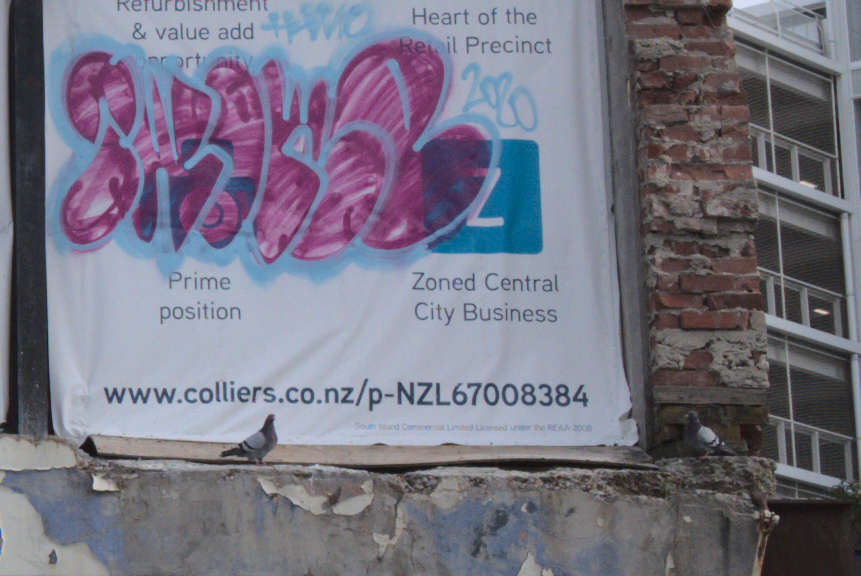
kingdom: Animalia
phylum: Chordata
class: Aves
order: Columbiformes
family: Columbidae
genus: Columba
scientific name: Columba livia
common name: Rock pigeon
